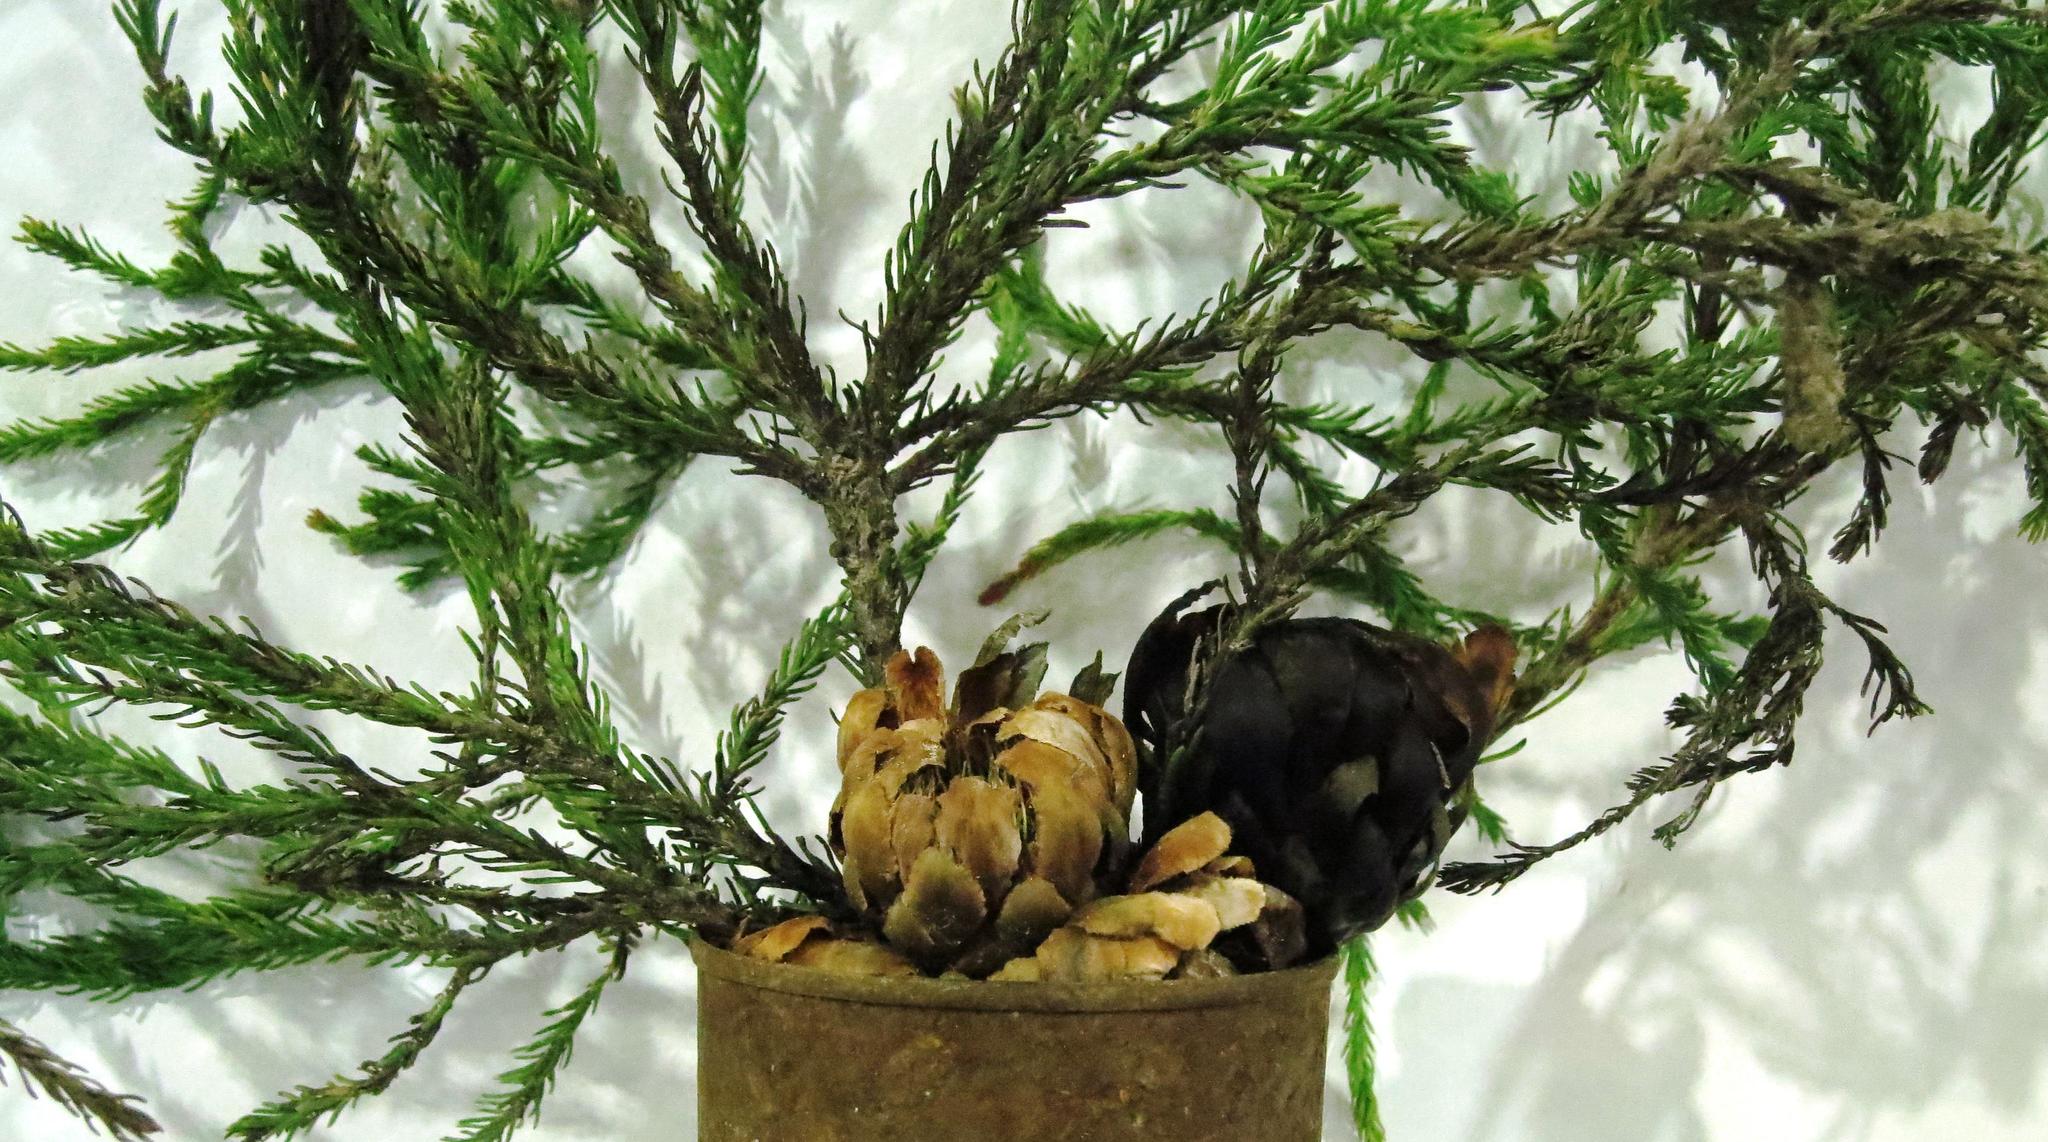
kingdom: Plantae
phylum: Tracheophyta
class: Magnoliopsida
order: Proteales
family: Proteaceae
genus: Protea
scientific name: Protea subulifolia
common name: Awl-leaf sugarbush
